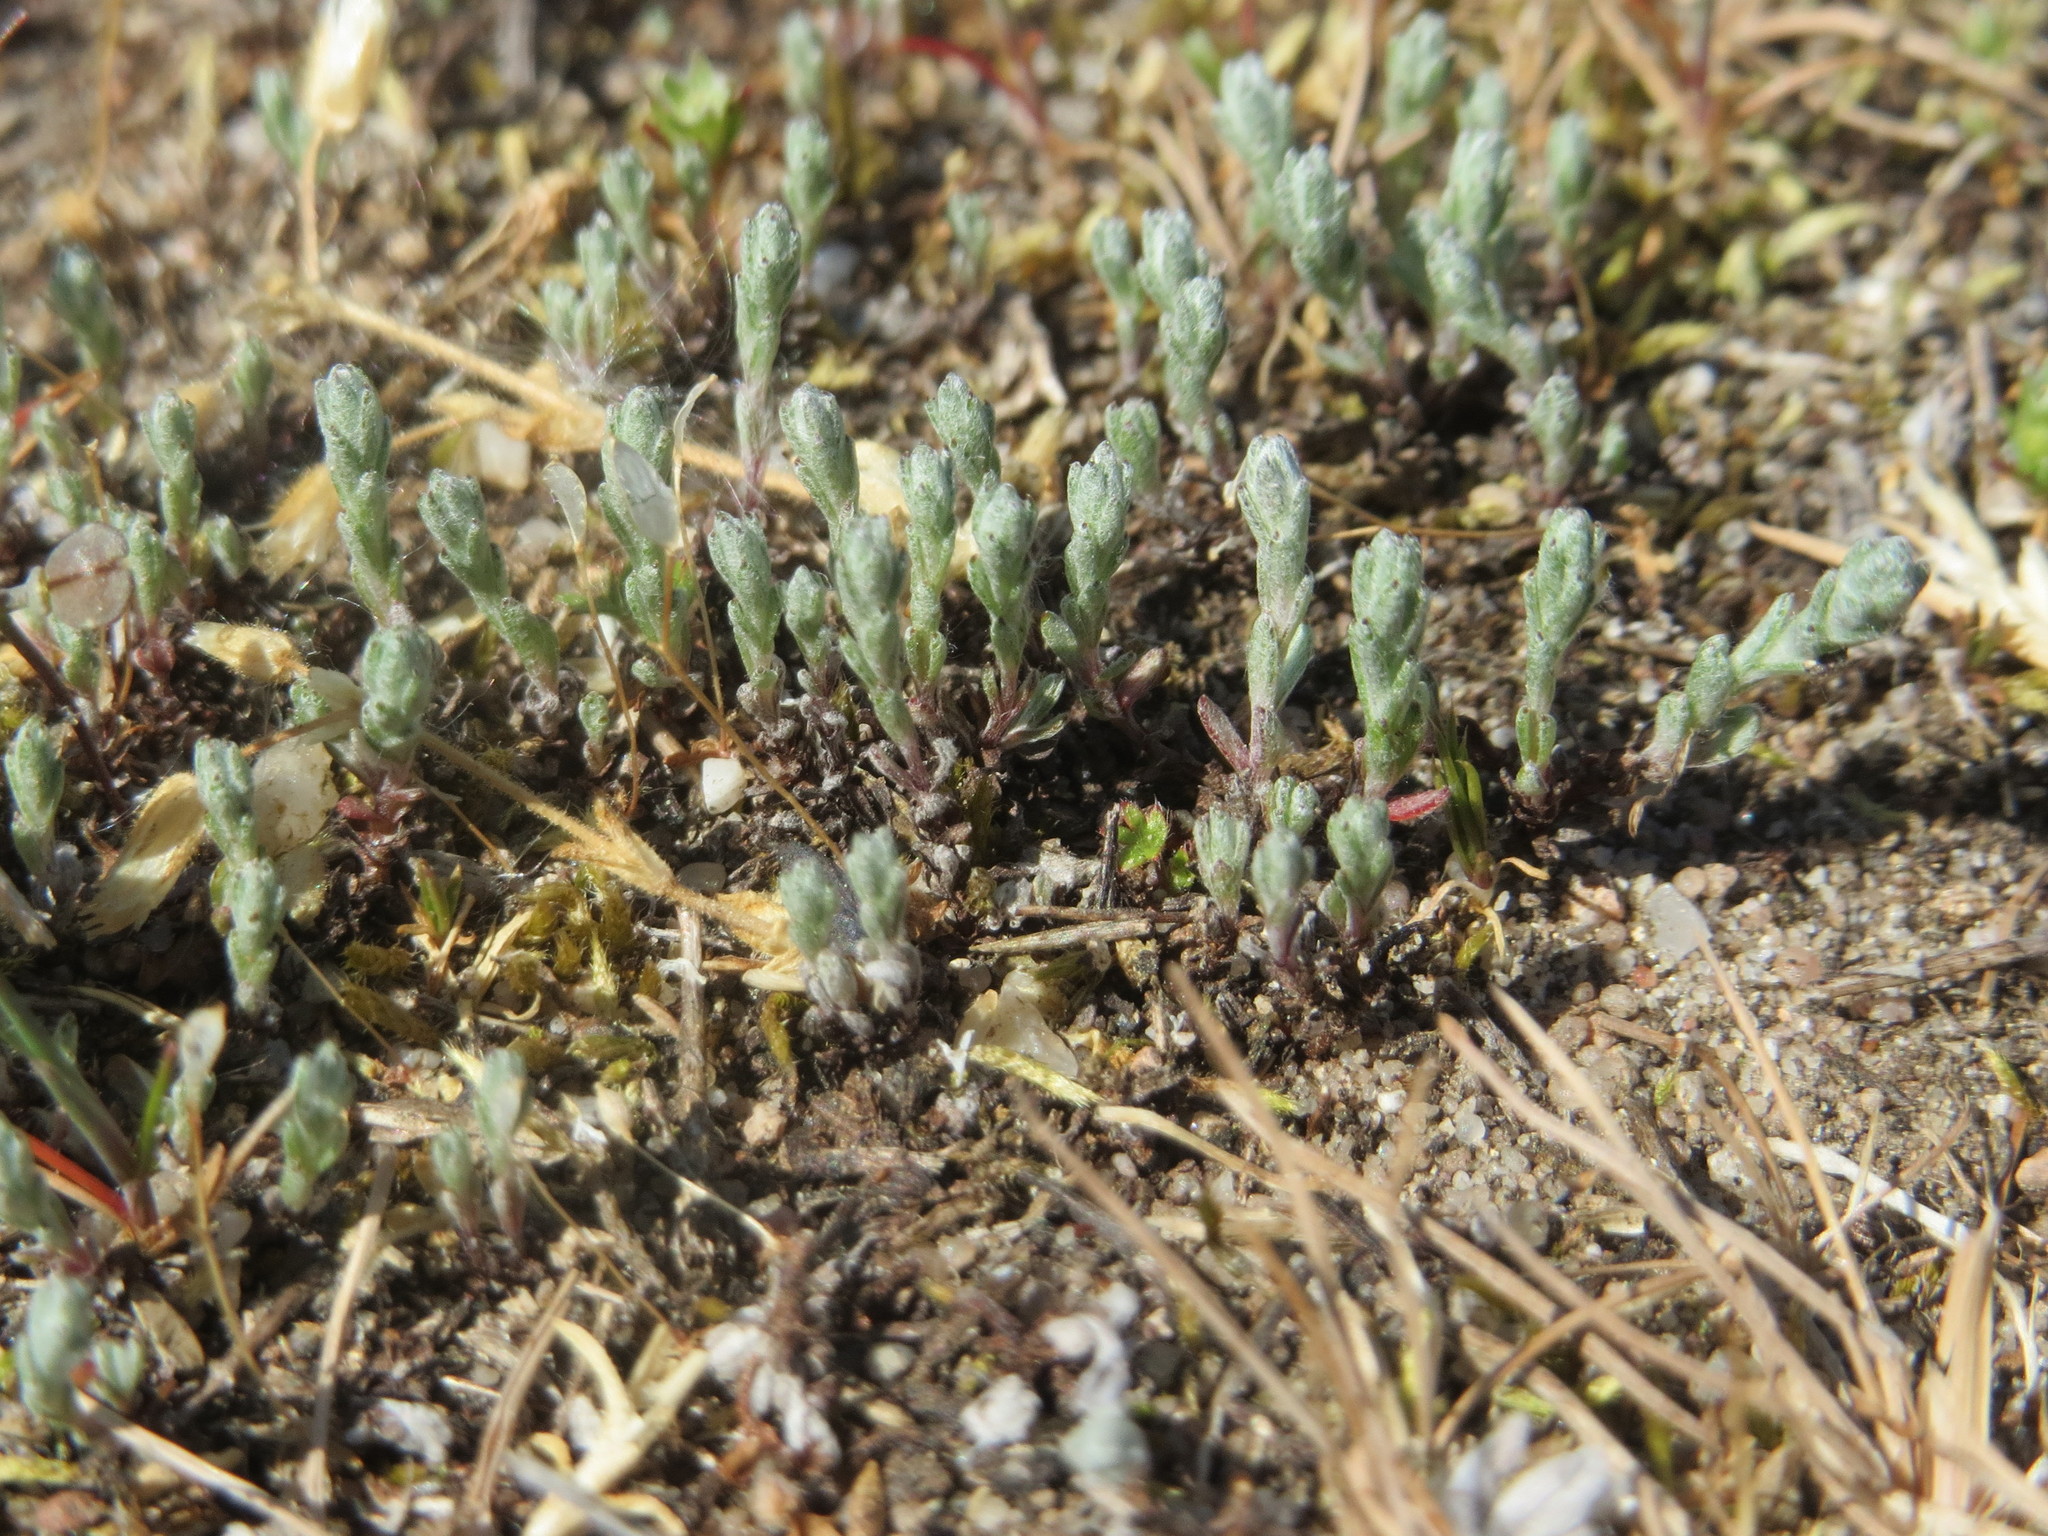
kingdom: Plantae
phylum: Tracheophyta
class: Magnoliopsida
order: Asterales
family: Asteraceae
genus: Filago
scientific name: Filago arvensis
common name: Field cudweed
